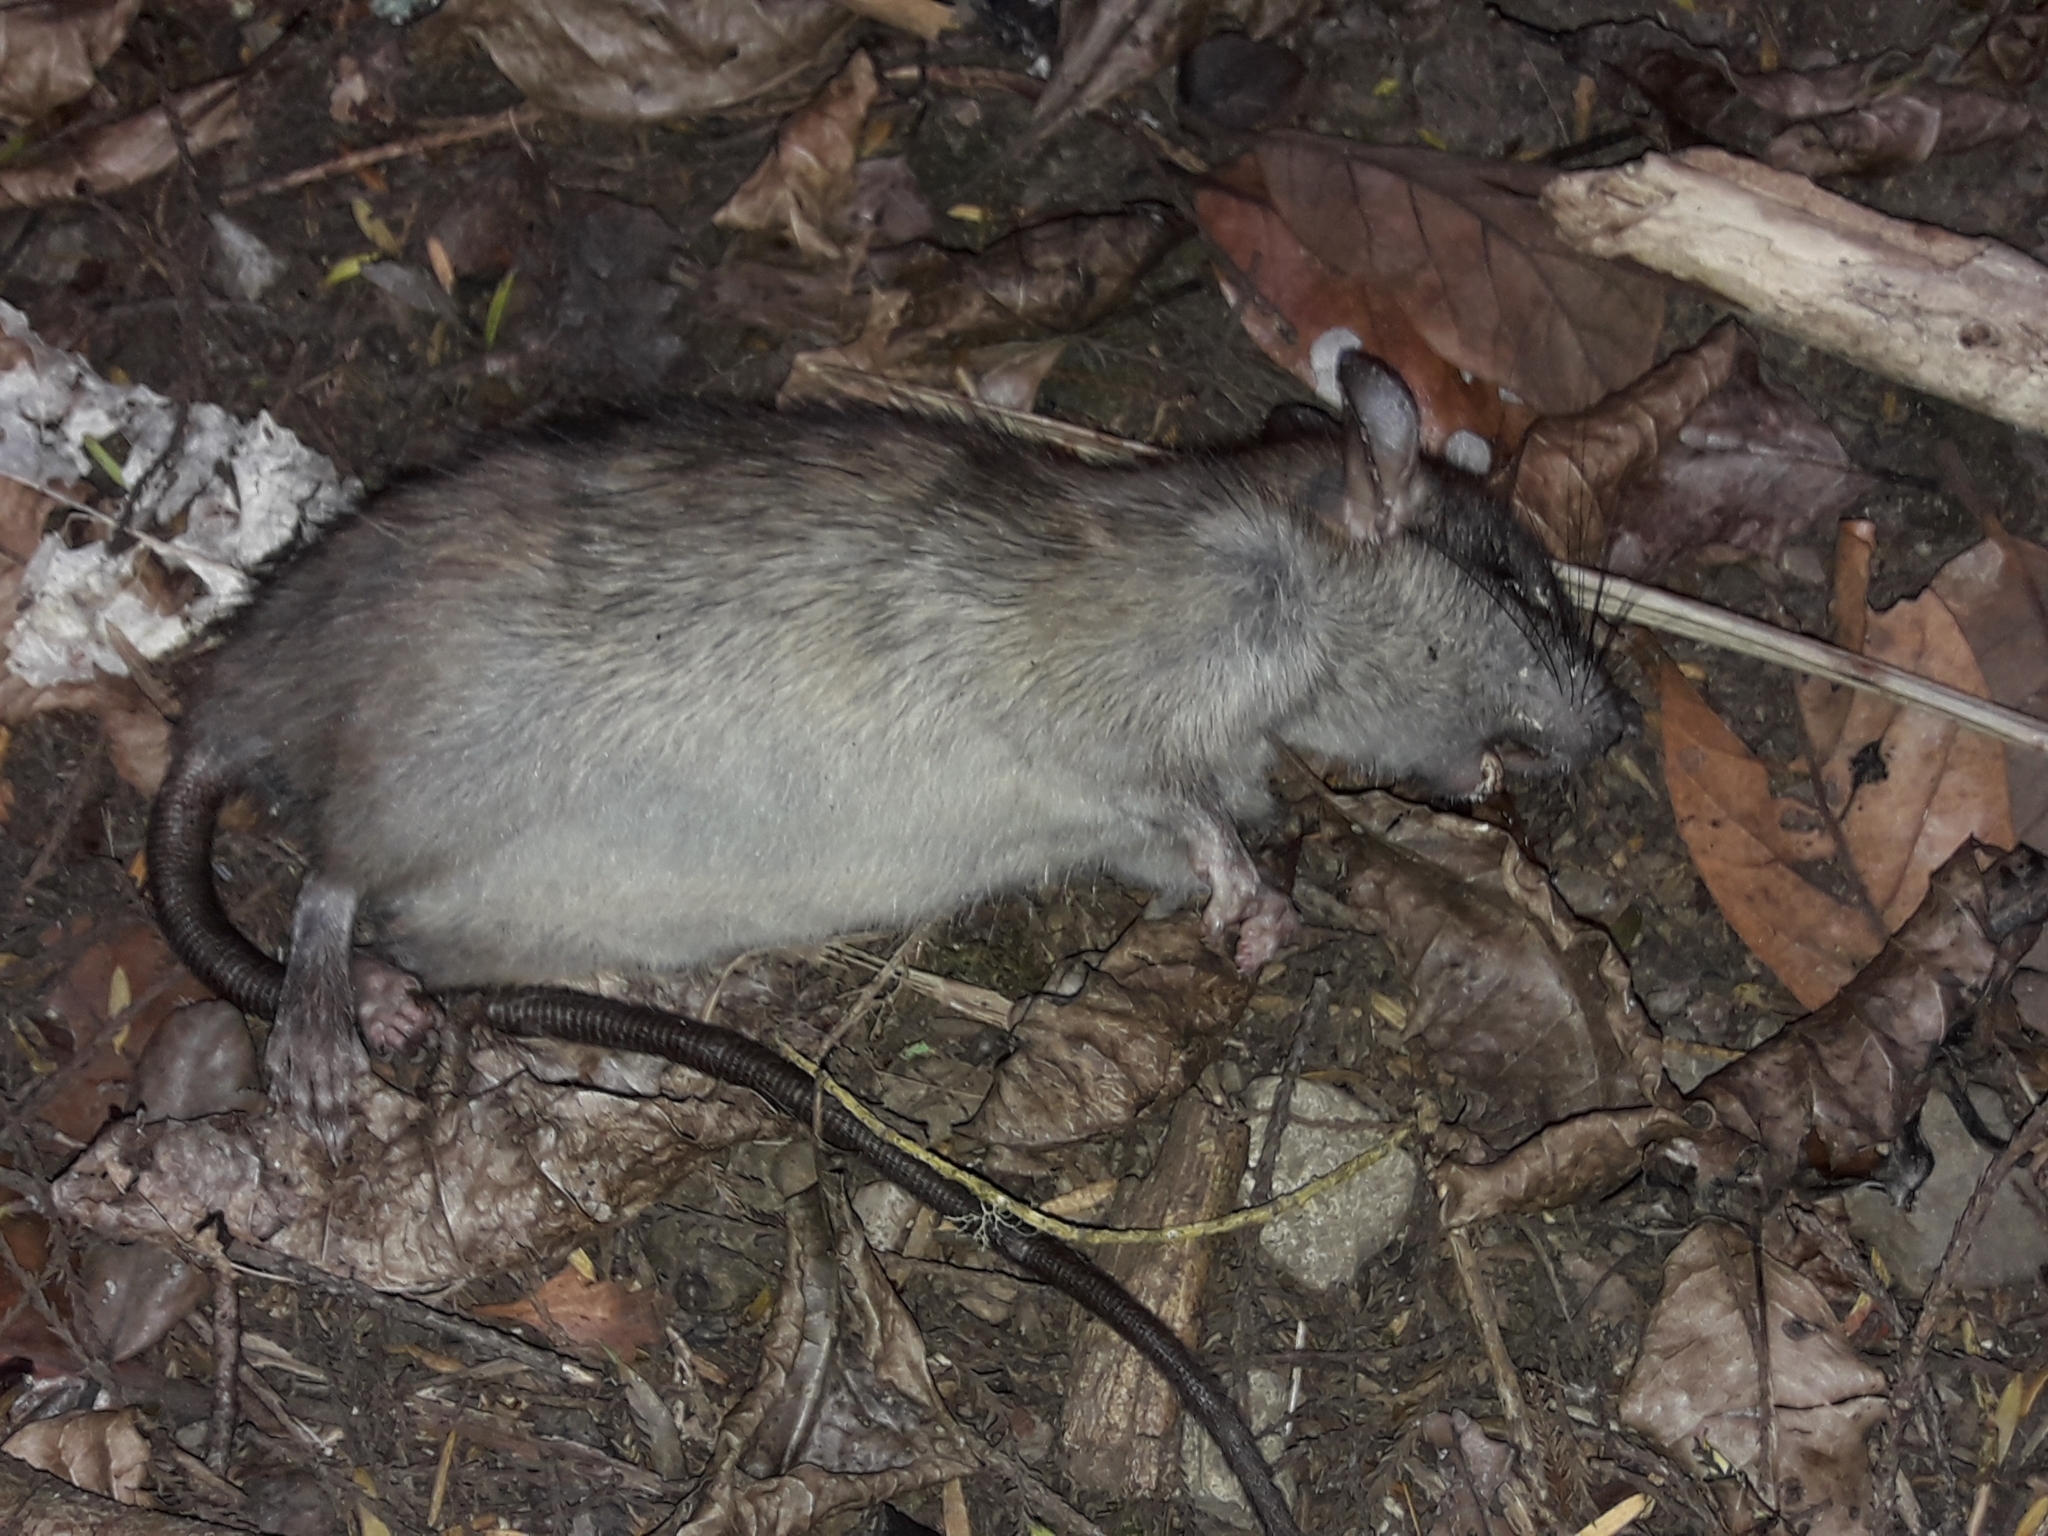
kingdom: Animalia
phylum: Chordata
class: Mammalia
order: Rodentia
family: Muridae
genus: Rattus
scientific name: Rattus rattus
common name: Black rat
